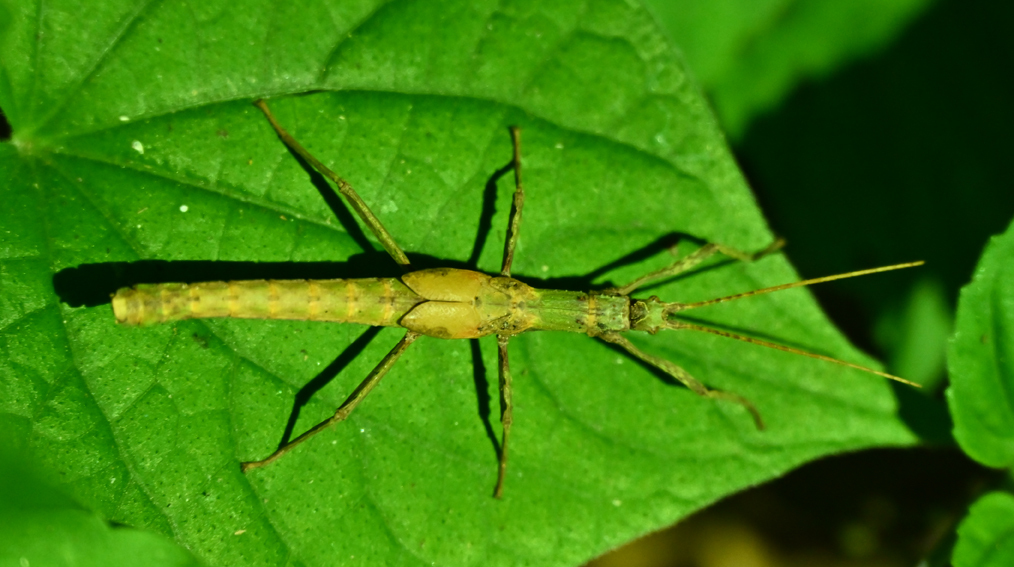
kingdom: Animalia
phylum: Arthropoda
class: Insecta
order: Phasmida
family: Pseudophasmatidae
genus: Creoxylus
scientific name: Creoxylus spinosus
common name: Trinidad log stick insect
